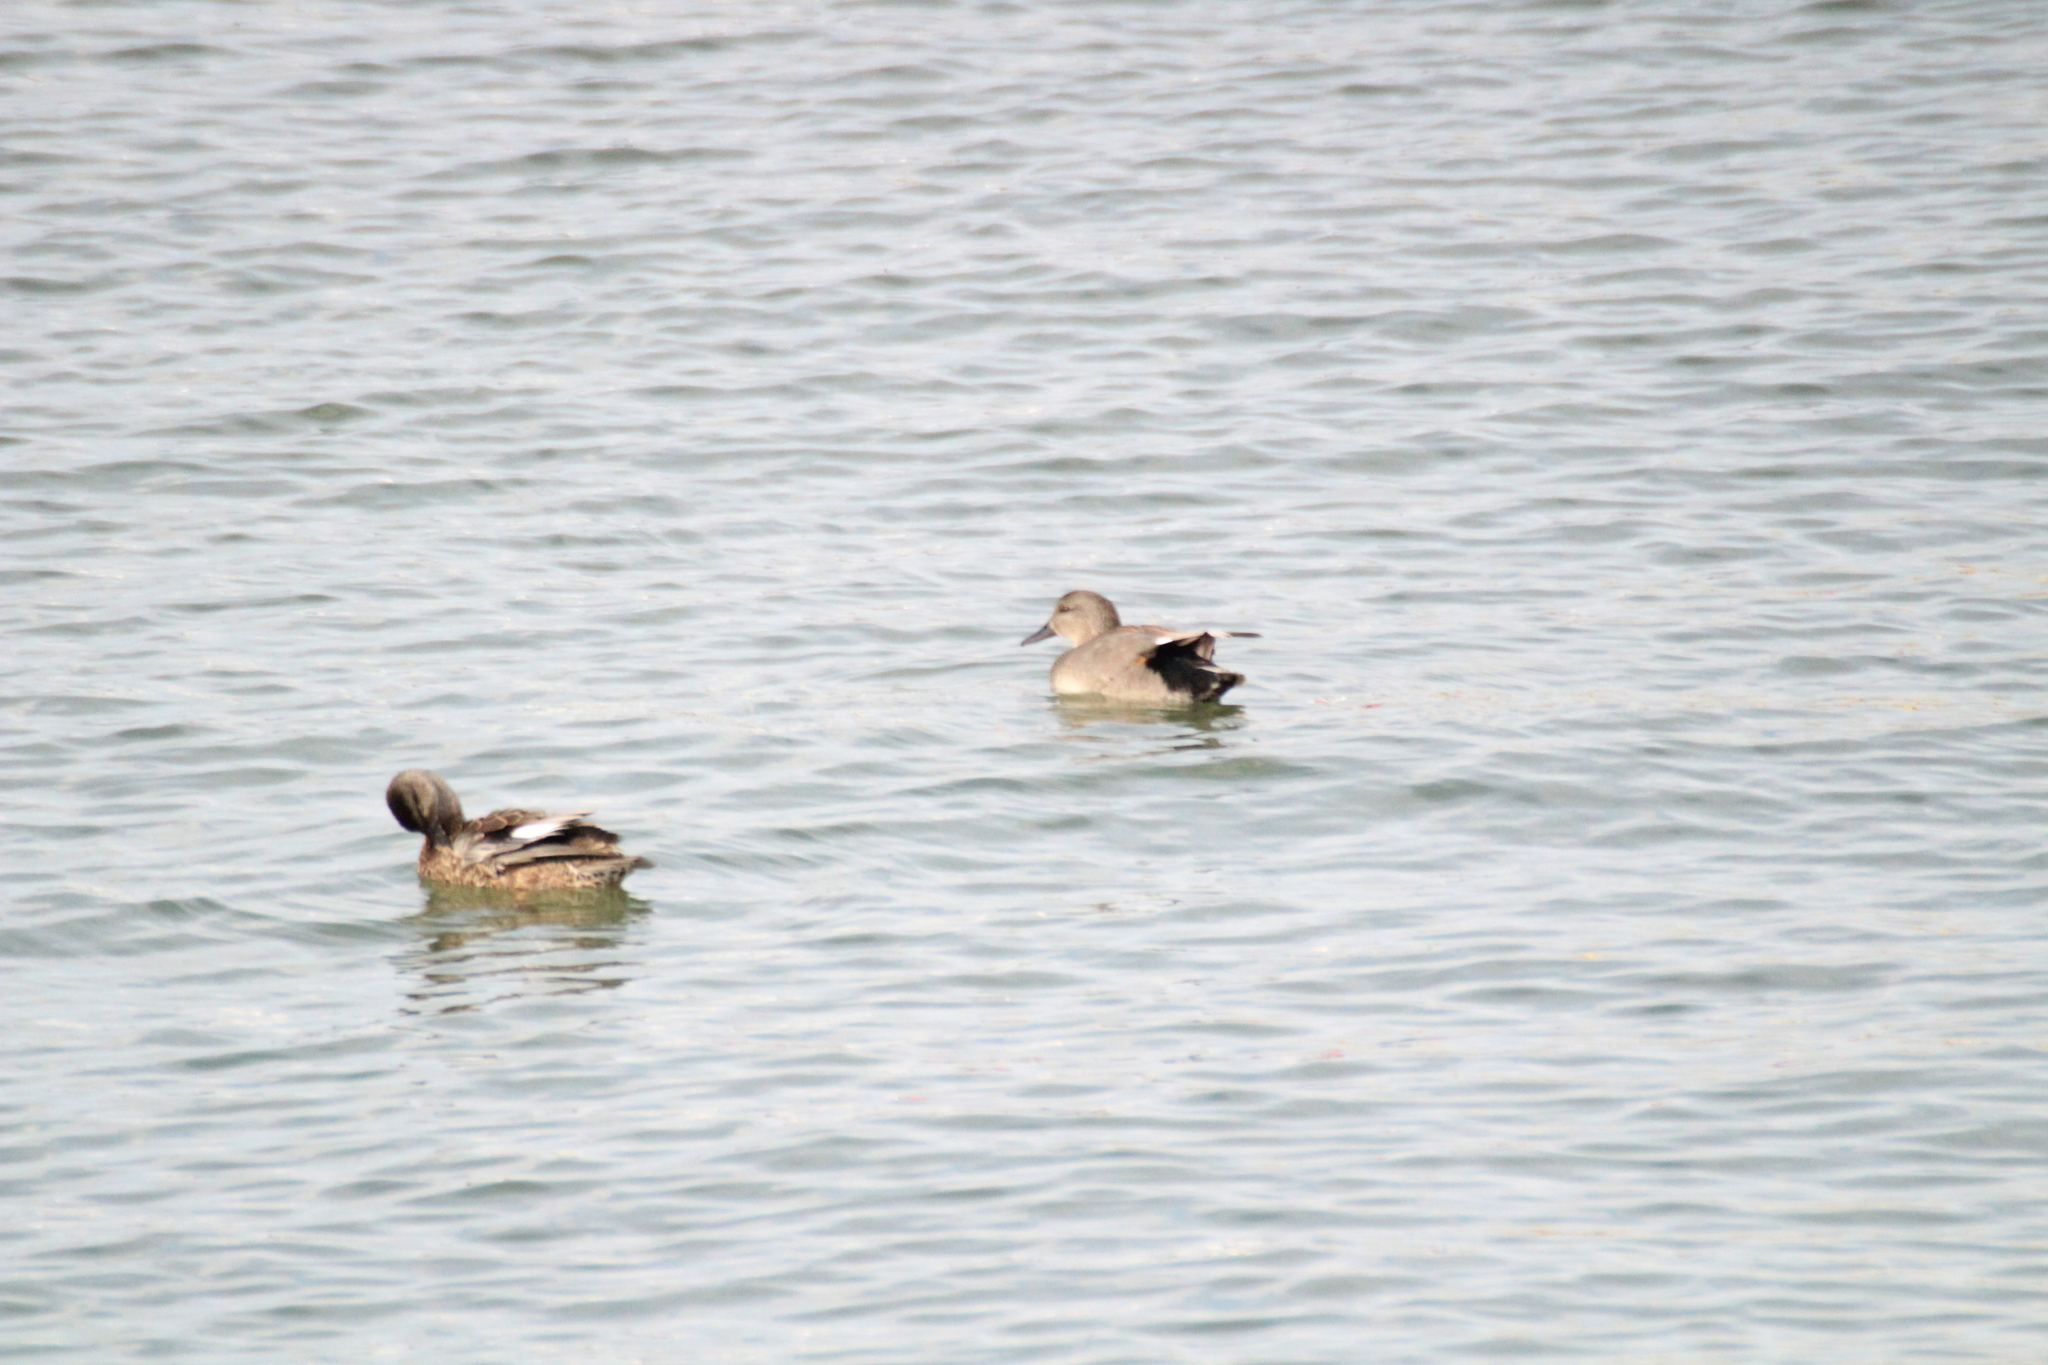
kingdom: Animalia
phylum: Chordata
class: Aves
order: Anseriformes
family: Anatidae
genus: Mareca
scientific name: Mareca strepera
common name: Gadwall
